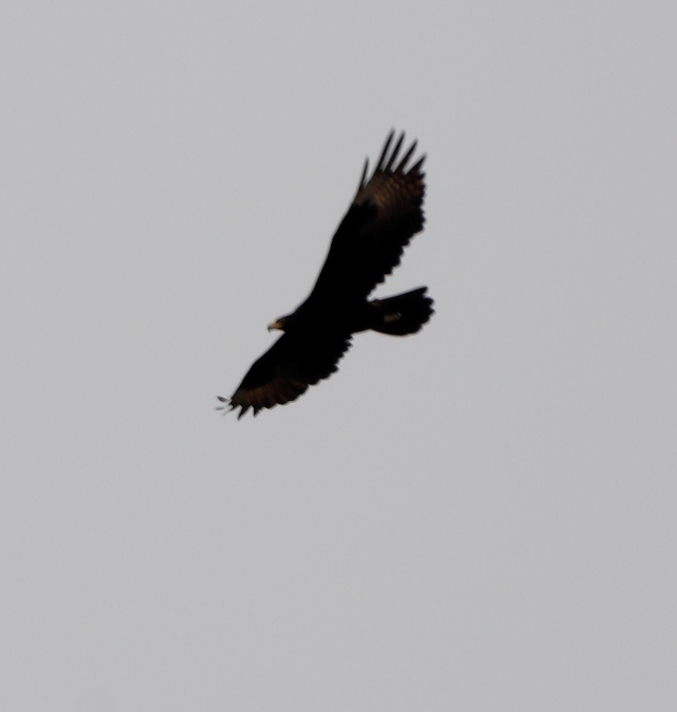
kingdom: Animalia
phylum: Chordata
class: Aves
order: Accipitriformes
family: Accipitridae
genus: Aquila
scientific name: Aquila verreauxii
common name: Verreaux's eagle
